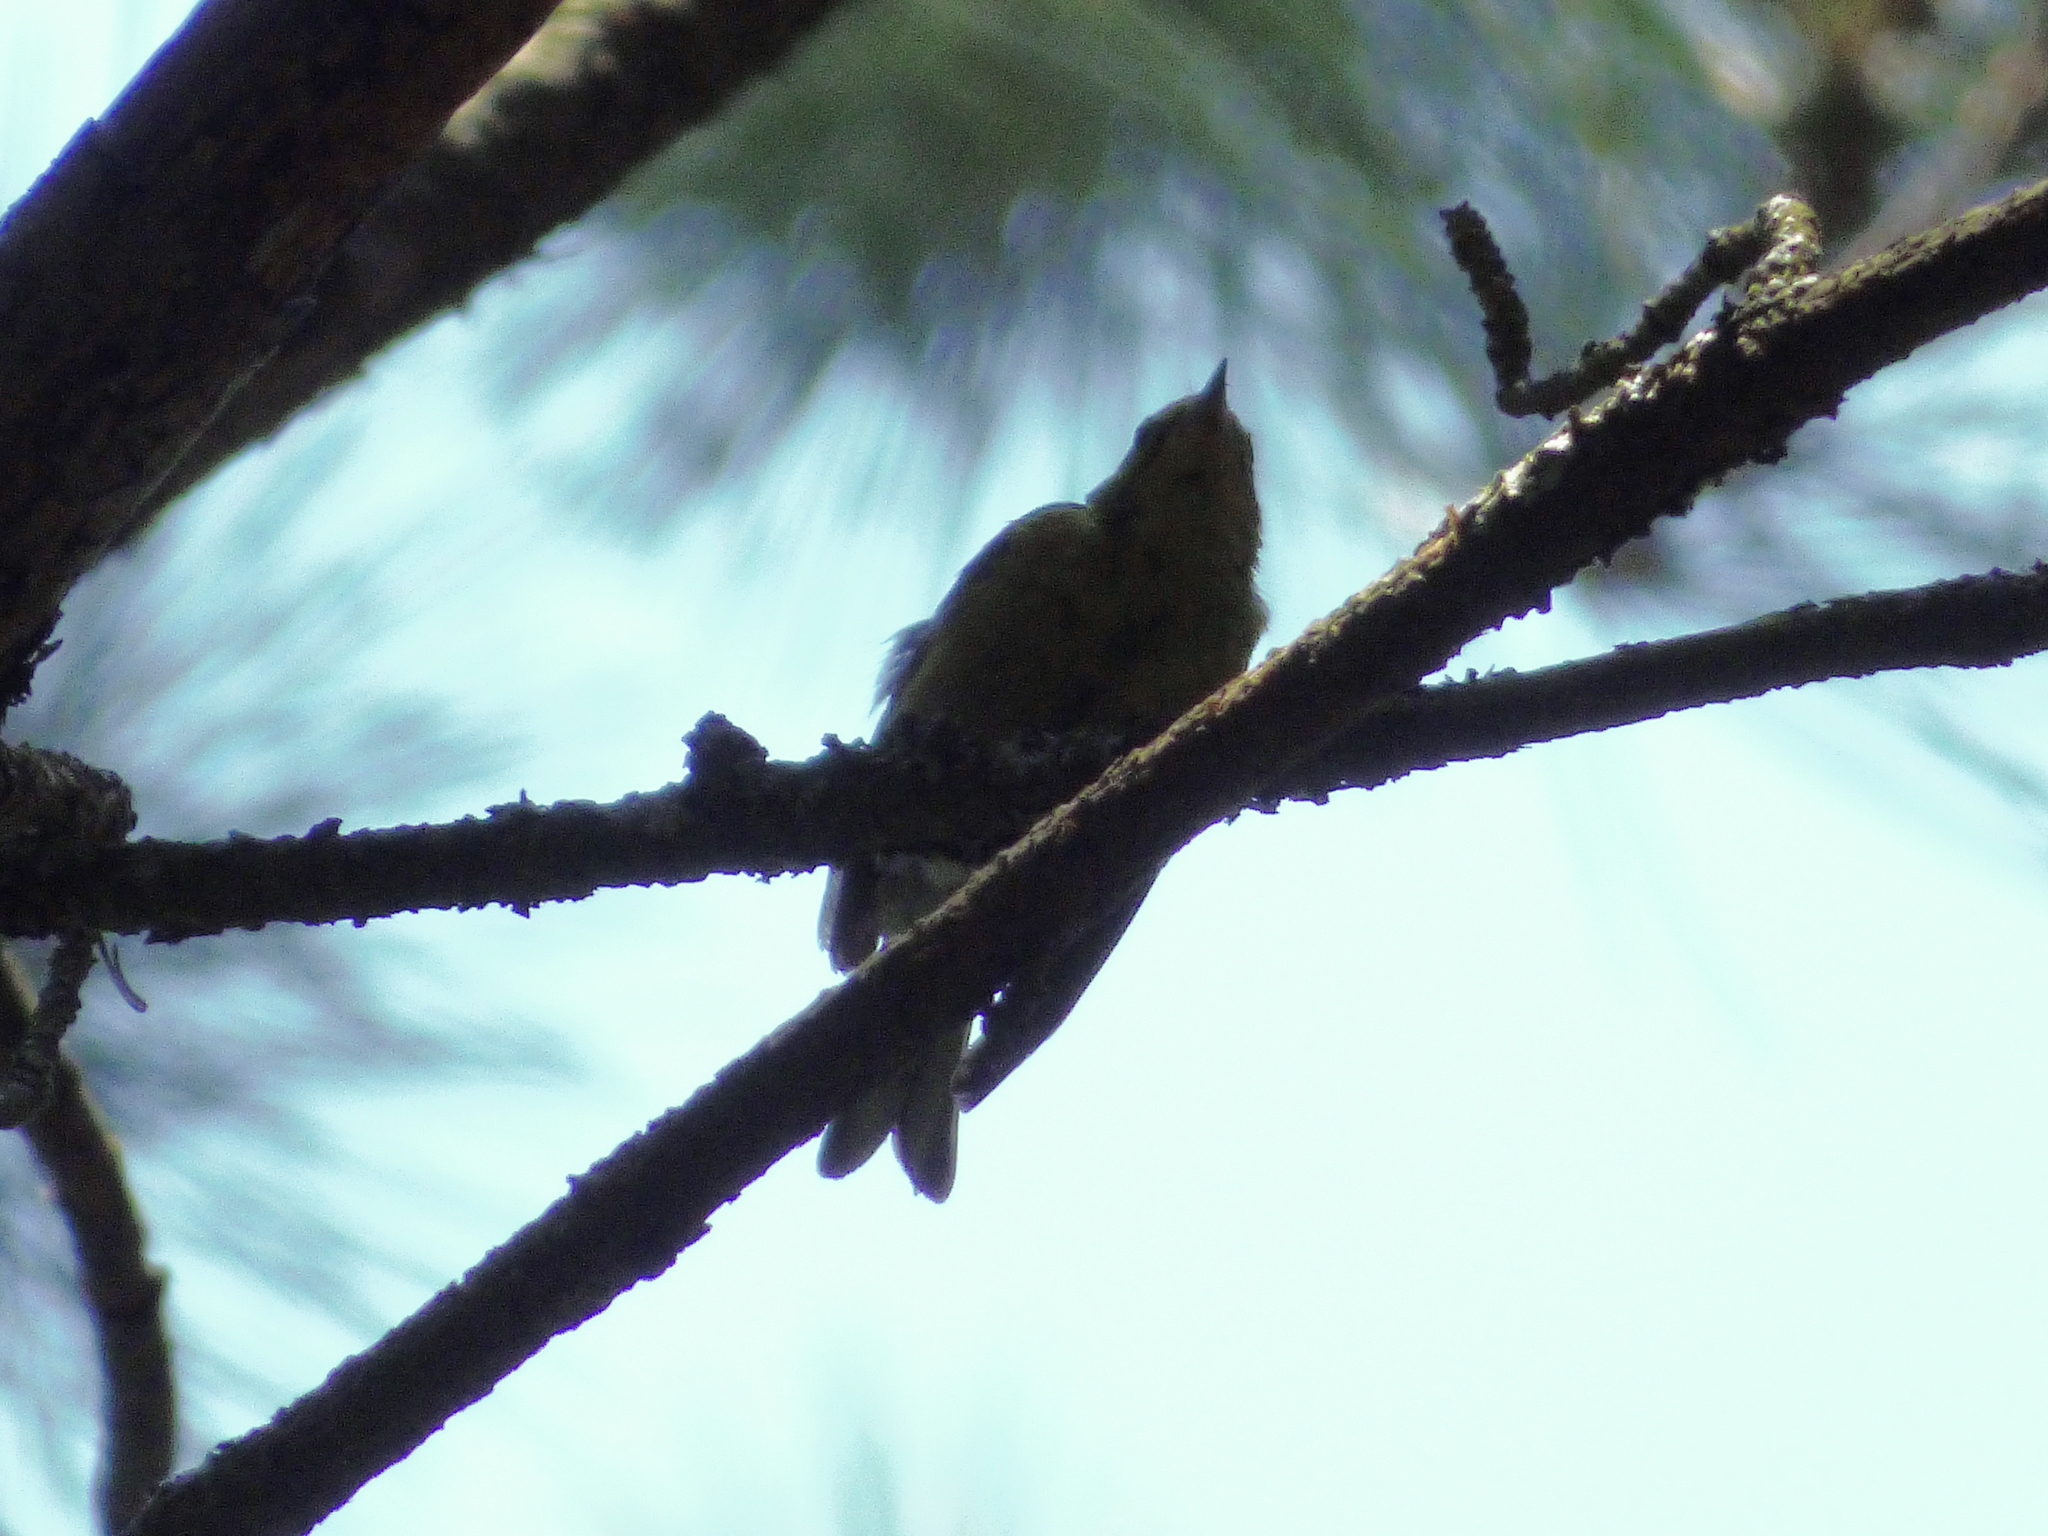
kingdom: Animalia
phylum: Chordata
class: Aves
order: Passeriformes
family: Parulidae
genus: Setophaga
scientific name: Setophaga pinus
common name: Pine warbler
